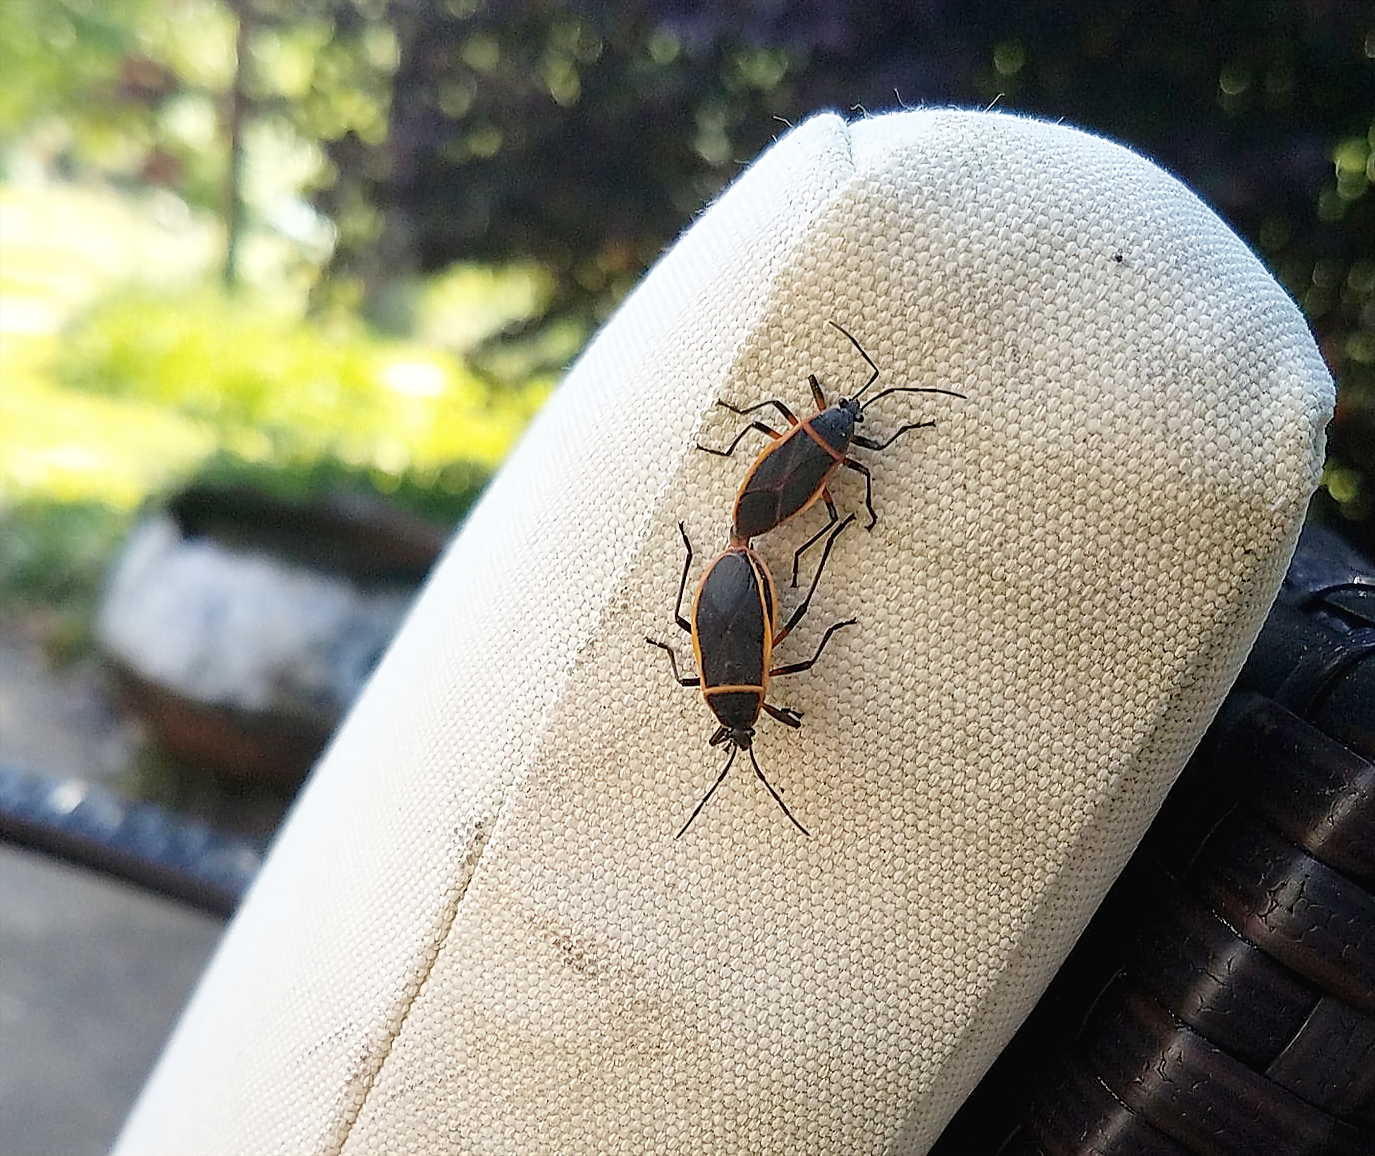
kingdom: Animalia
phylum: Arthropoda
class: Insecta
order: Hemiptera
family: Largidae
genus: Largus
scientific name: Largus succinctus
